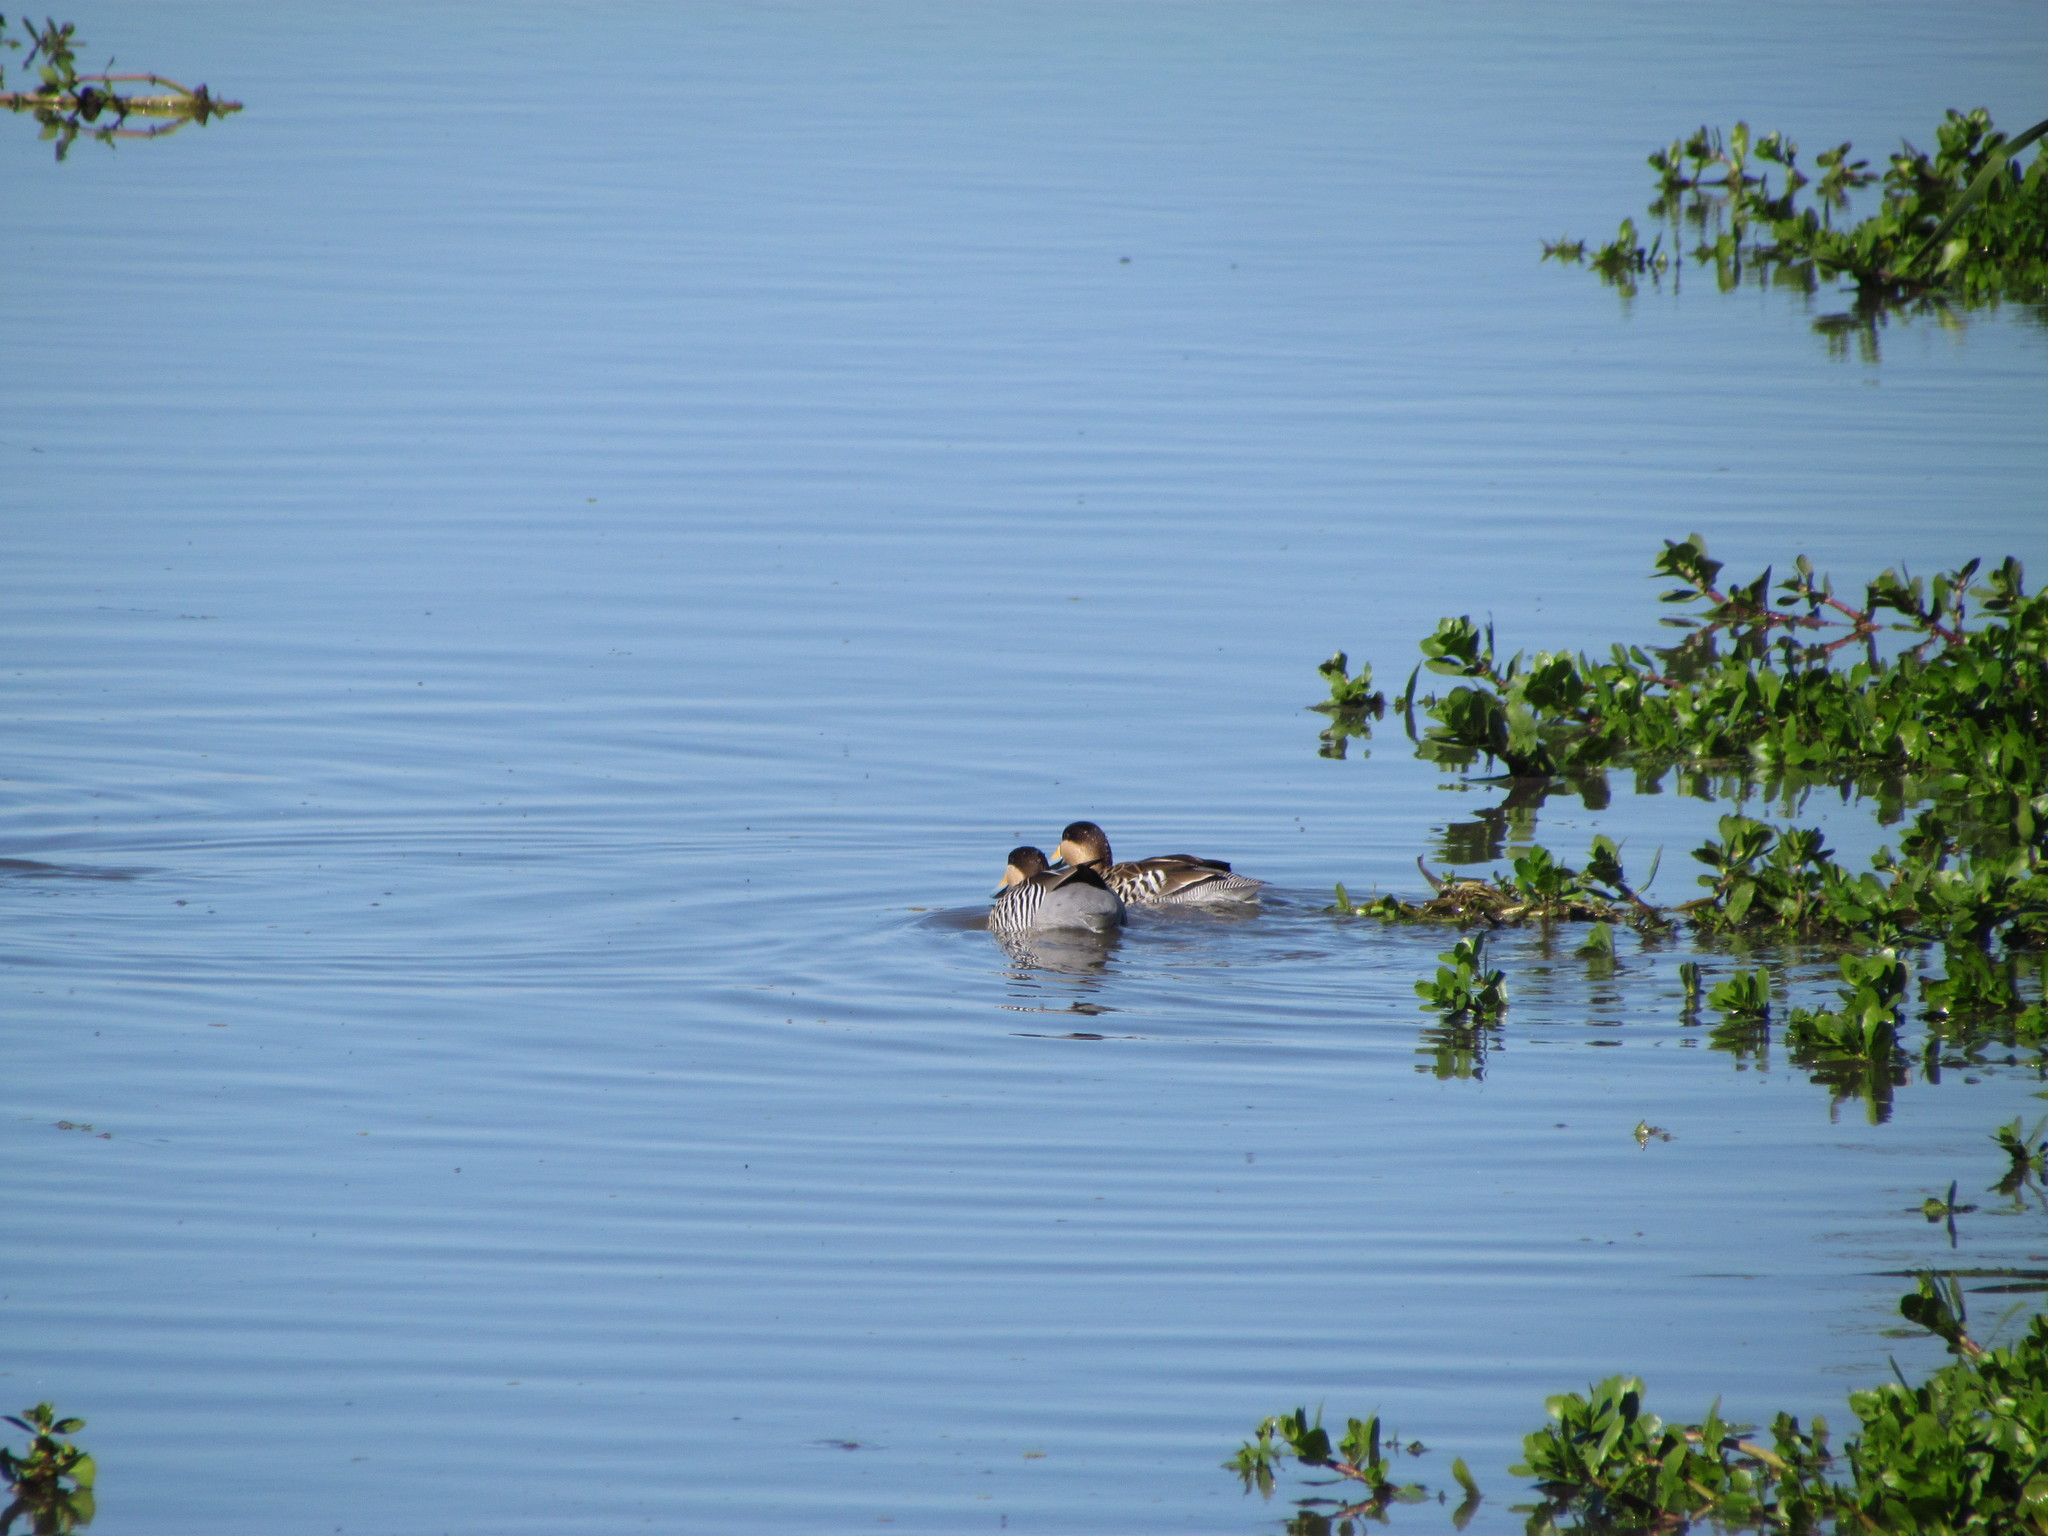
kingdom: Animalia
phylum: Chordata
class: Aves
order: Anseriformes
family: Anatidae
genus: Spatula
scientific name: Spatula versicolor
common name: Silver teal
